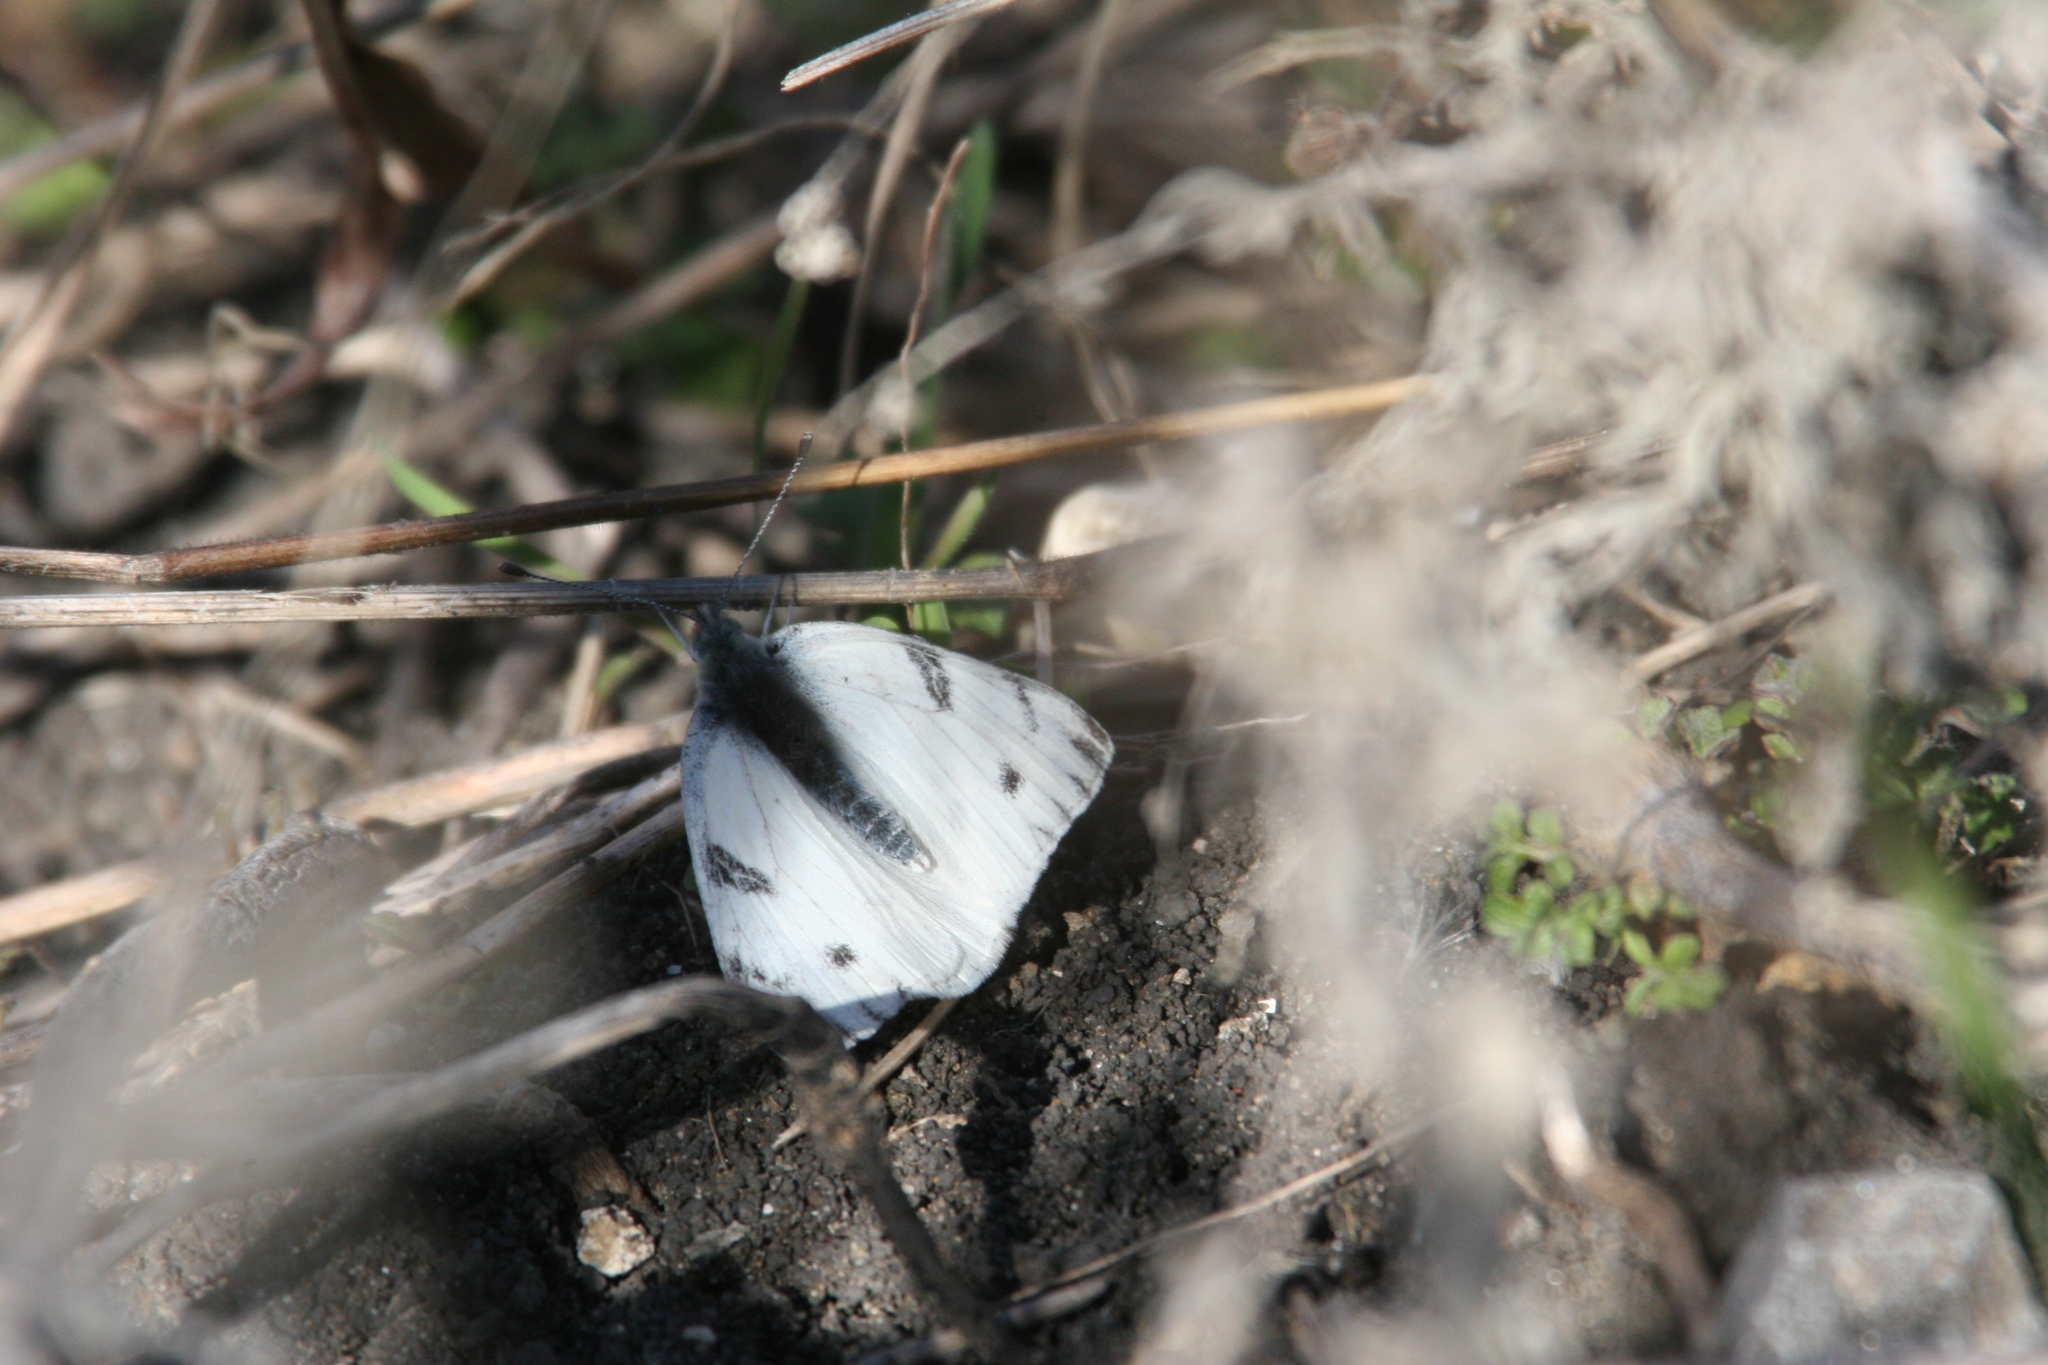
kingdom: Animalia
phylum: Arthropoda
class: Insecta
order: Lepidoptera
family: Pieridae
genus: Pontia
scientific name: Pontia protodice
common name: Checkered white
